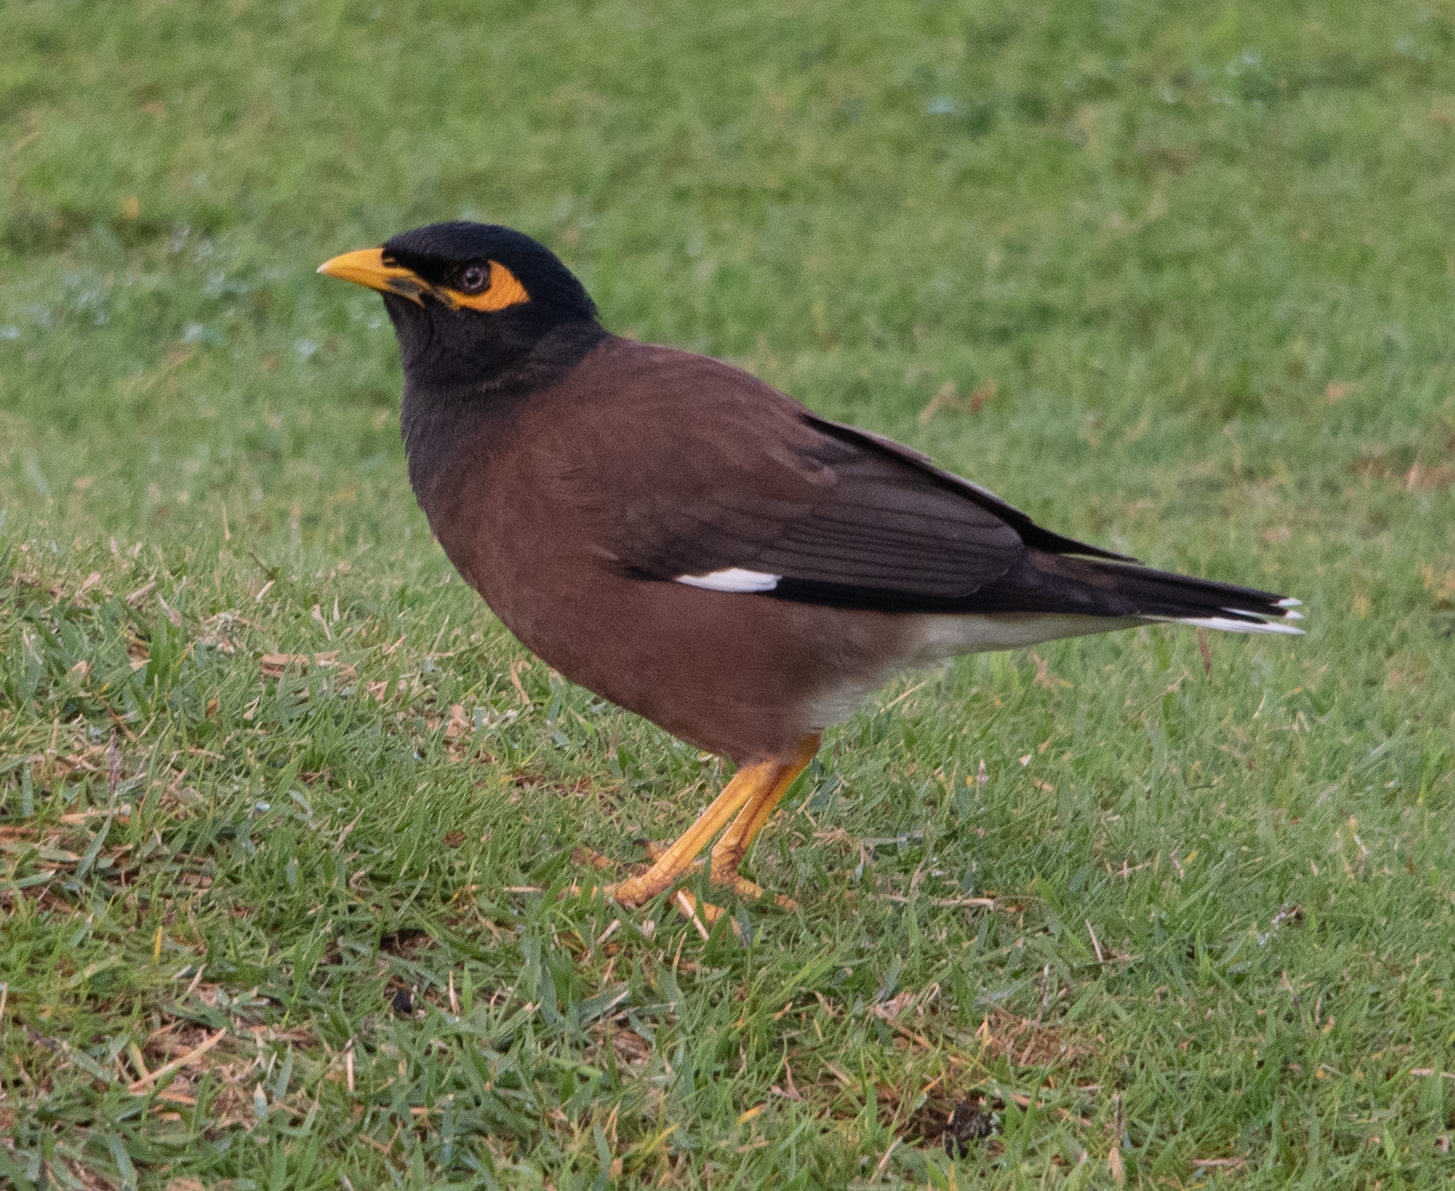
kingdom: Animalia
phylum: Chordata
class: Aves
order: Passeriformes
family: Sturnidae
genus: Acridotheres
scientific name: Acridotheres tristis
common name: Common myna
